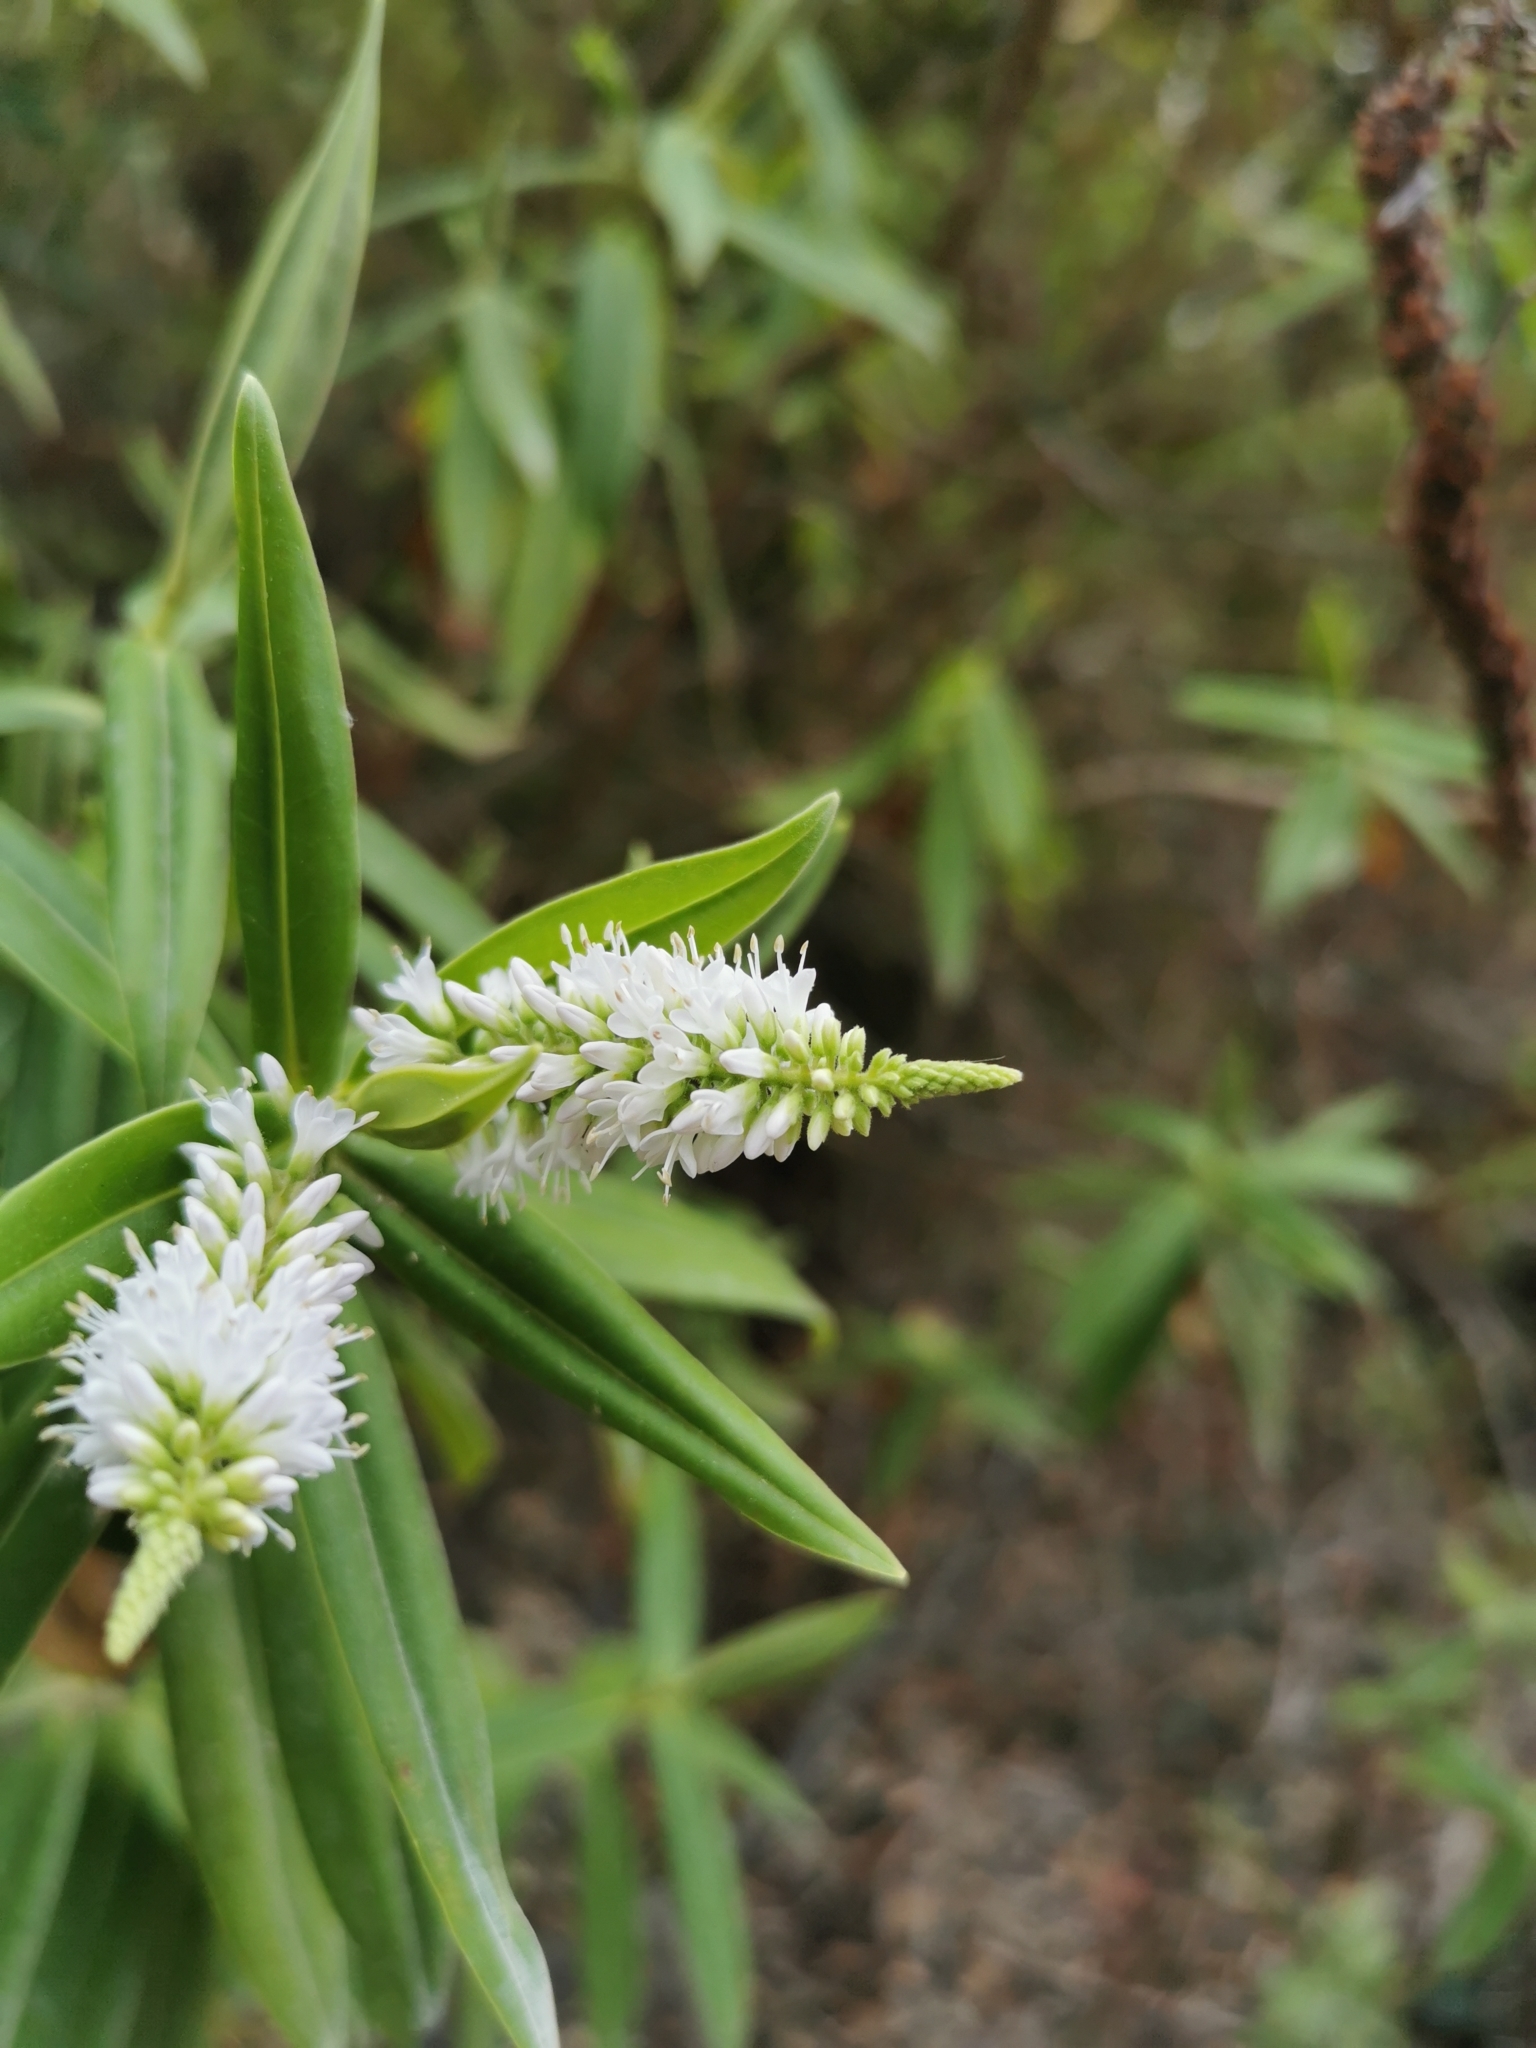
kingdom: Plantae
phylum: Tracheophyta
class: Magnoliopsida
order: Lamiales
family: Plantaginaceae
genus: Veronica
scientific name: Veronica pubescens
